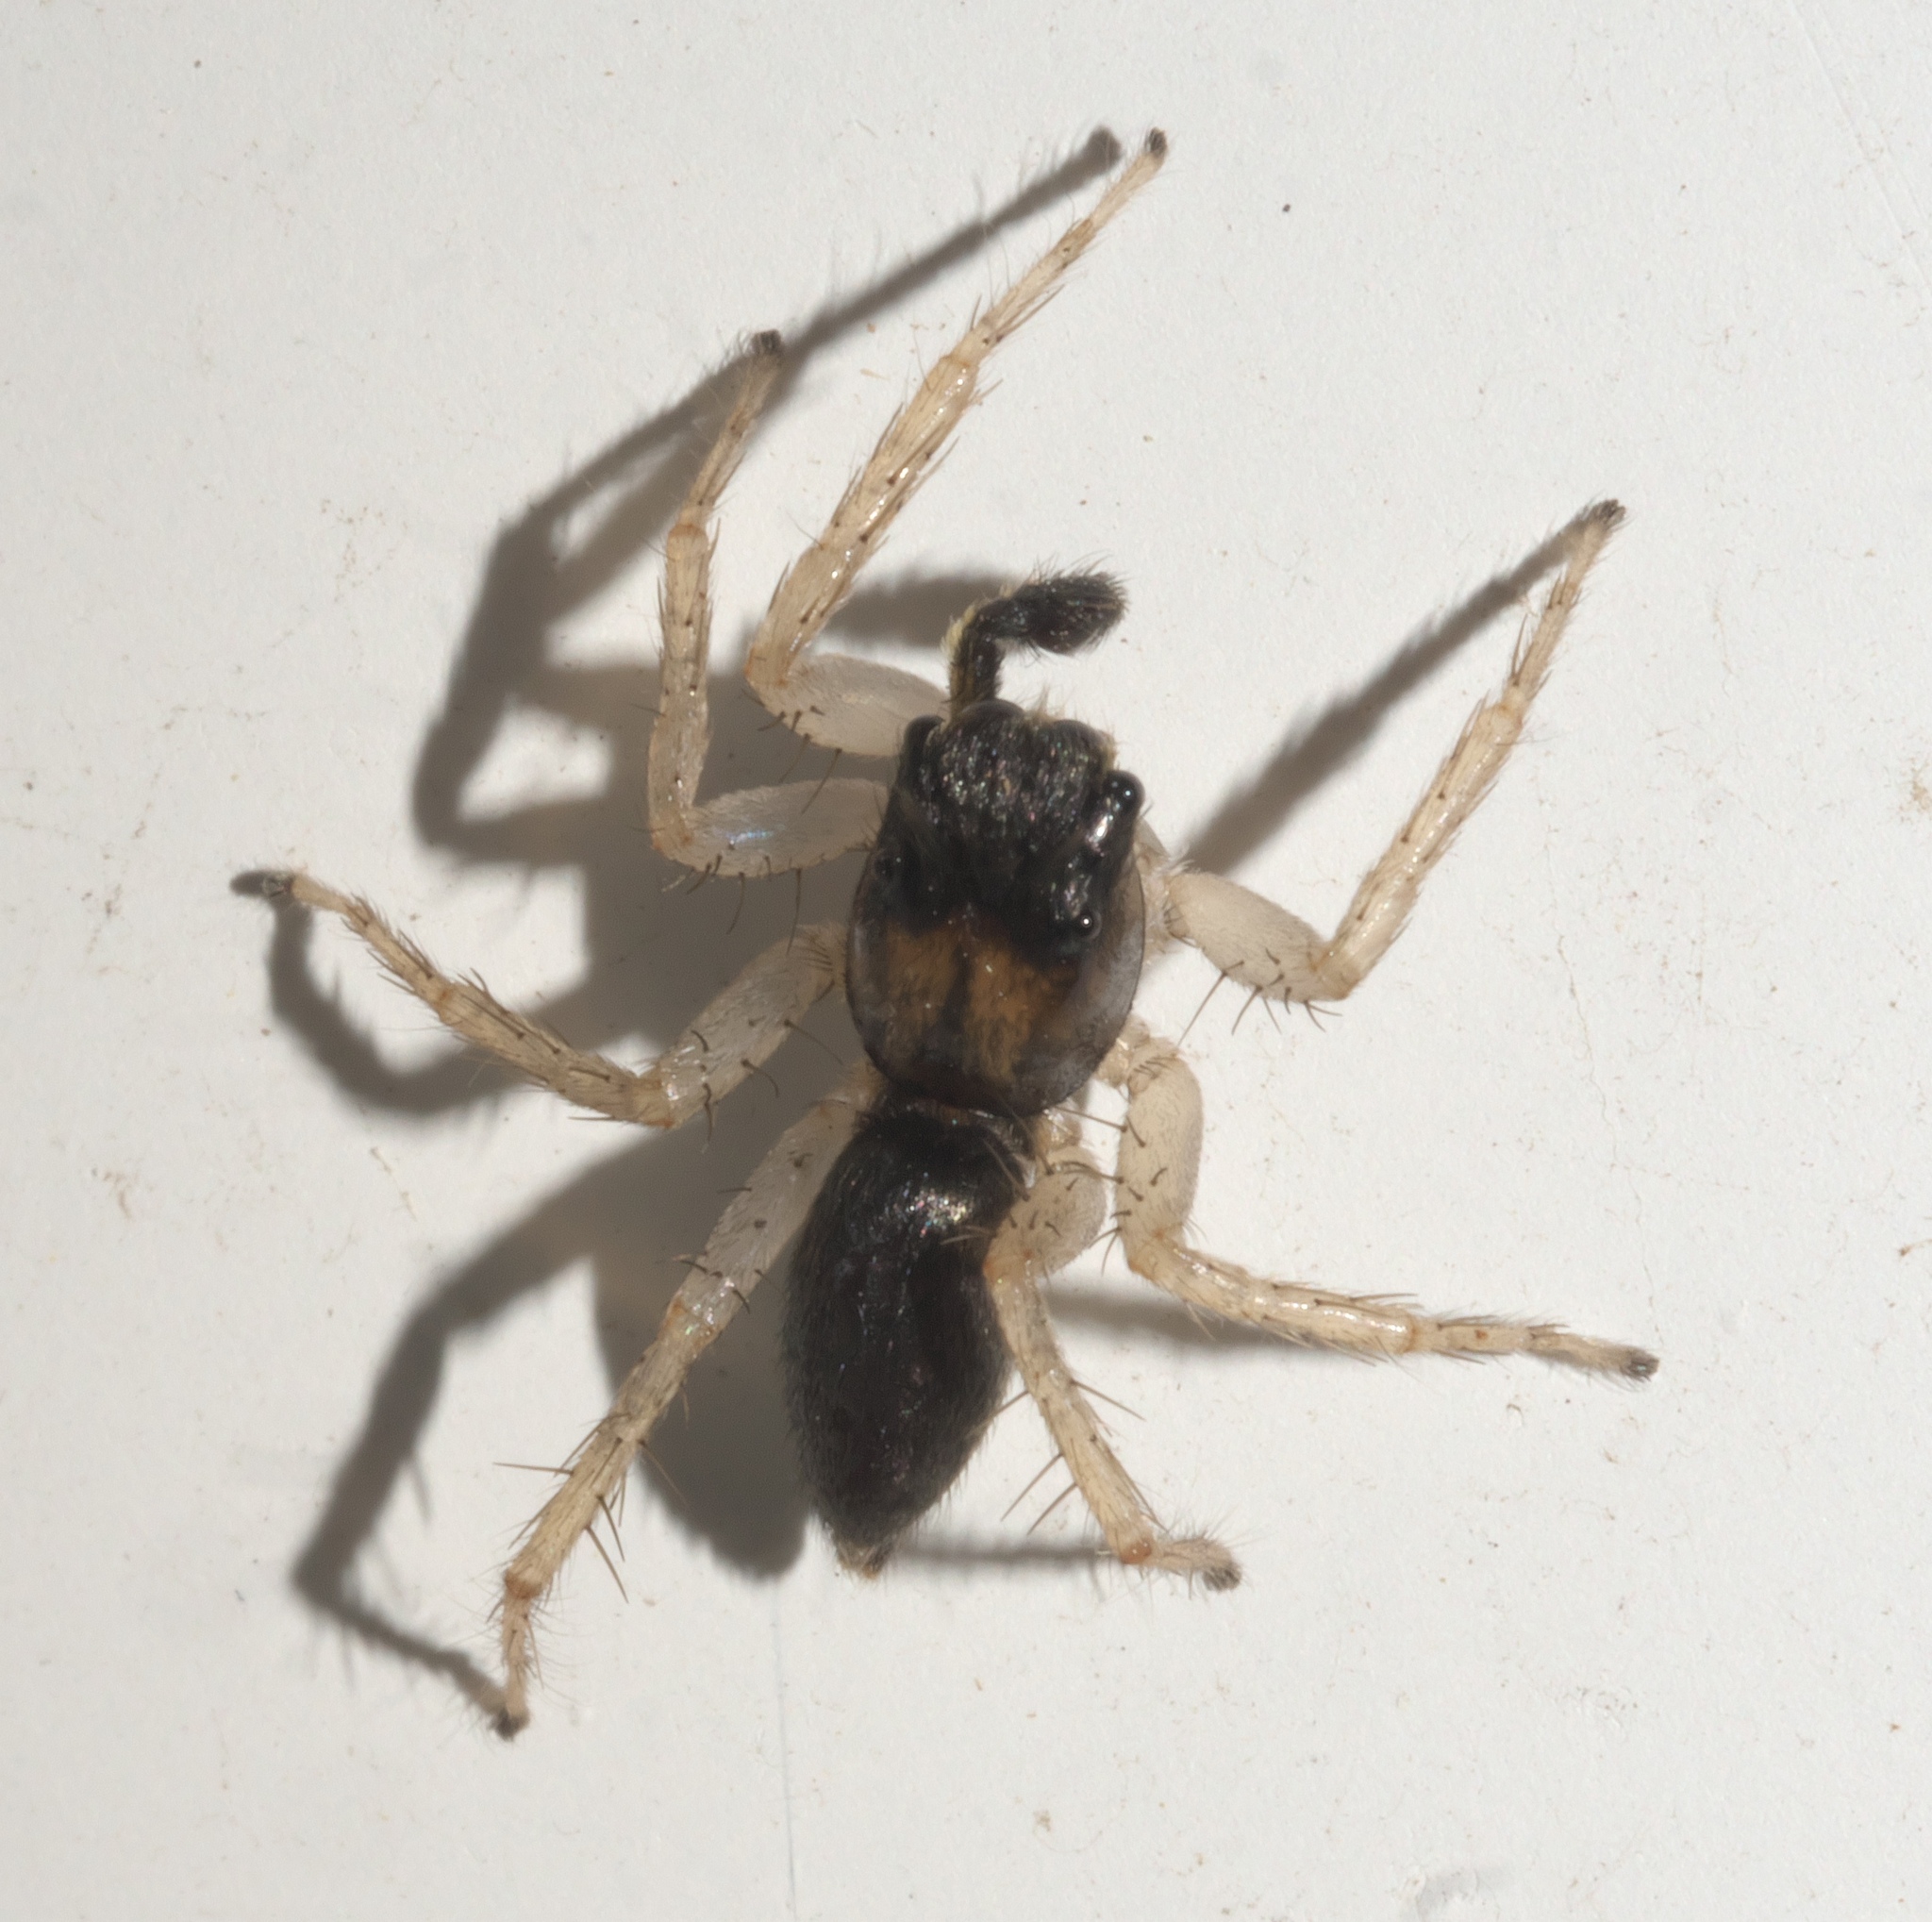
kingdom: Animalia
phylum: Arthropoda
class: Arachnida
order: Araneae
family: Salticidae
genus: Maevia
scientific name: Maevia inclemens
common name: Dimorphic jumper
